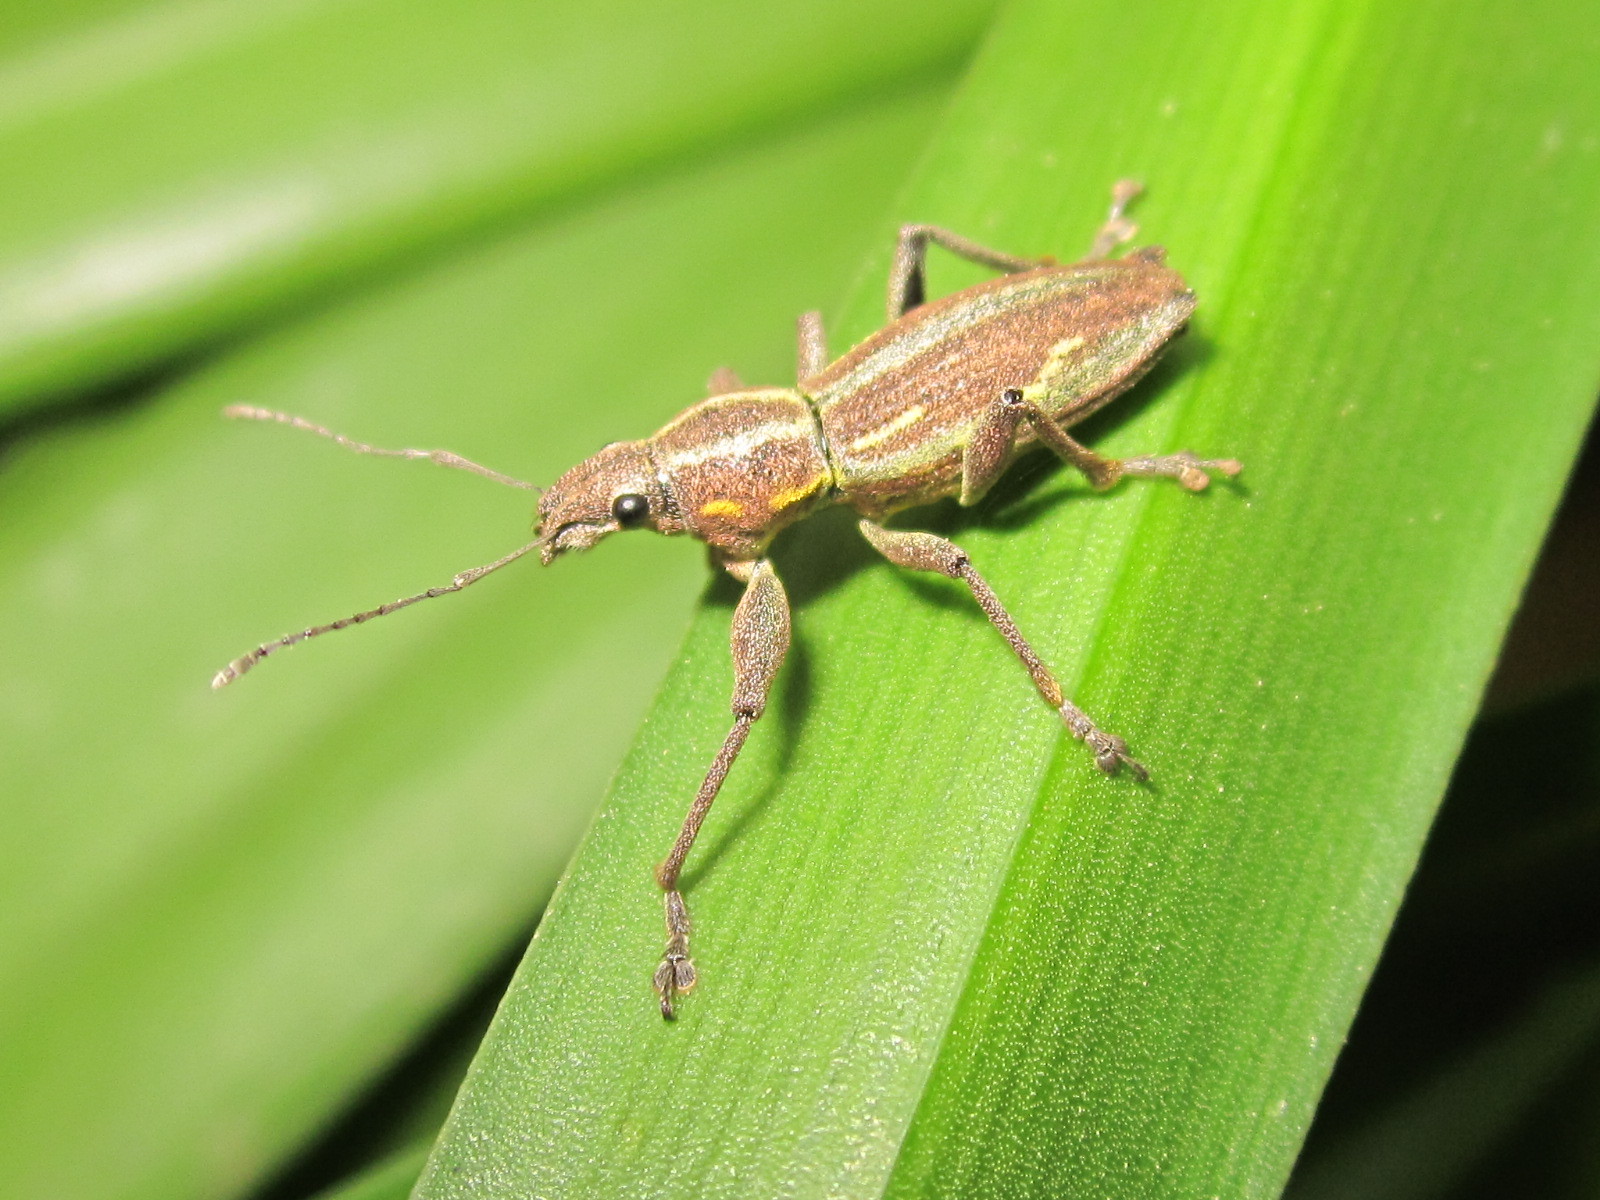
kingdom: Animalia
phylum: Arthropoda
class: Insecta
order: Coleoptera
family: Curculionidae
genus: Naupactus
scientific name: Naupactus xanthographus
